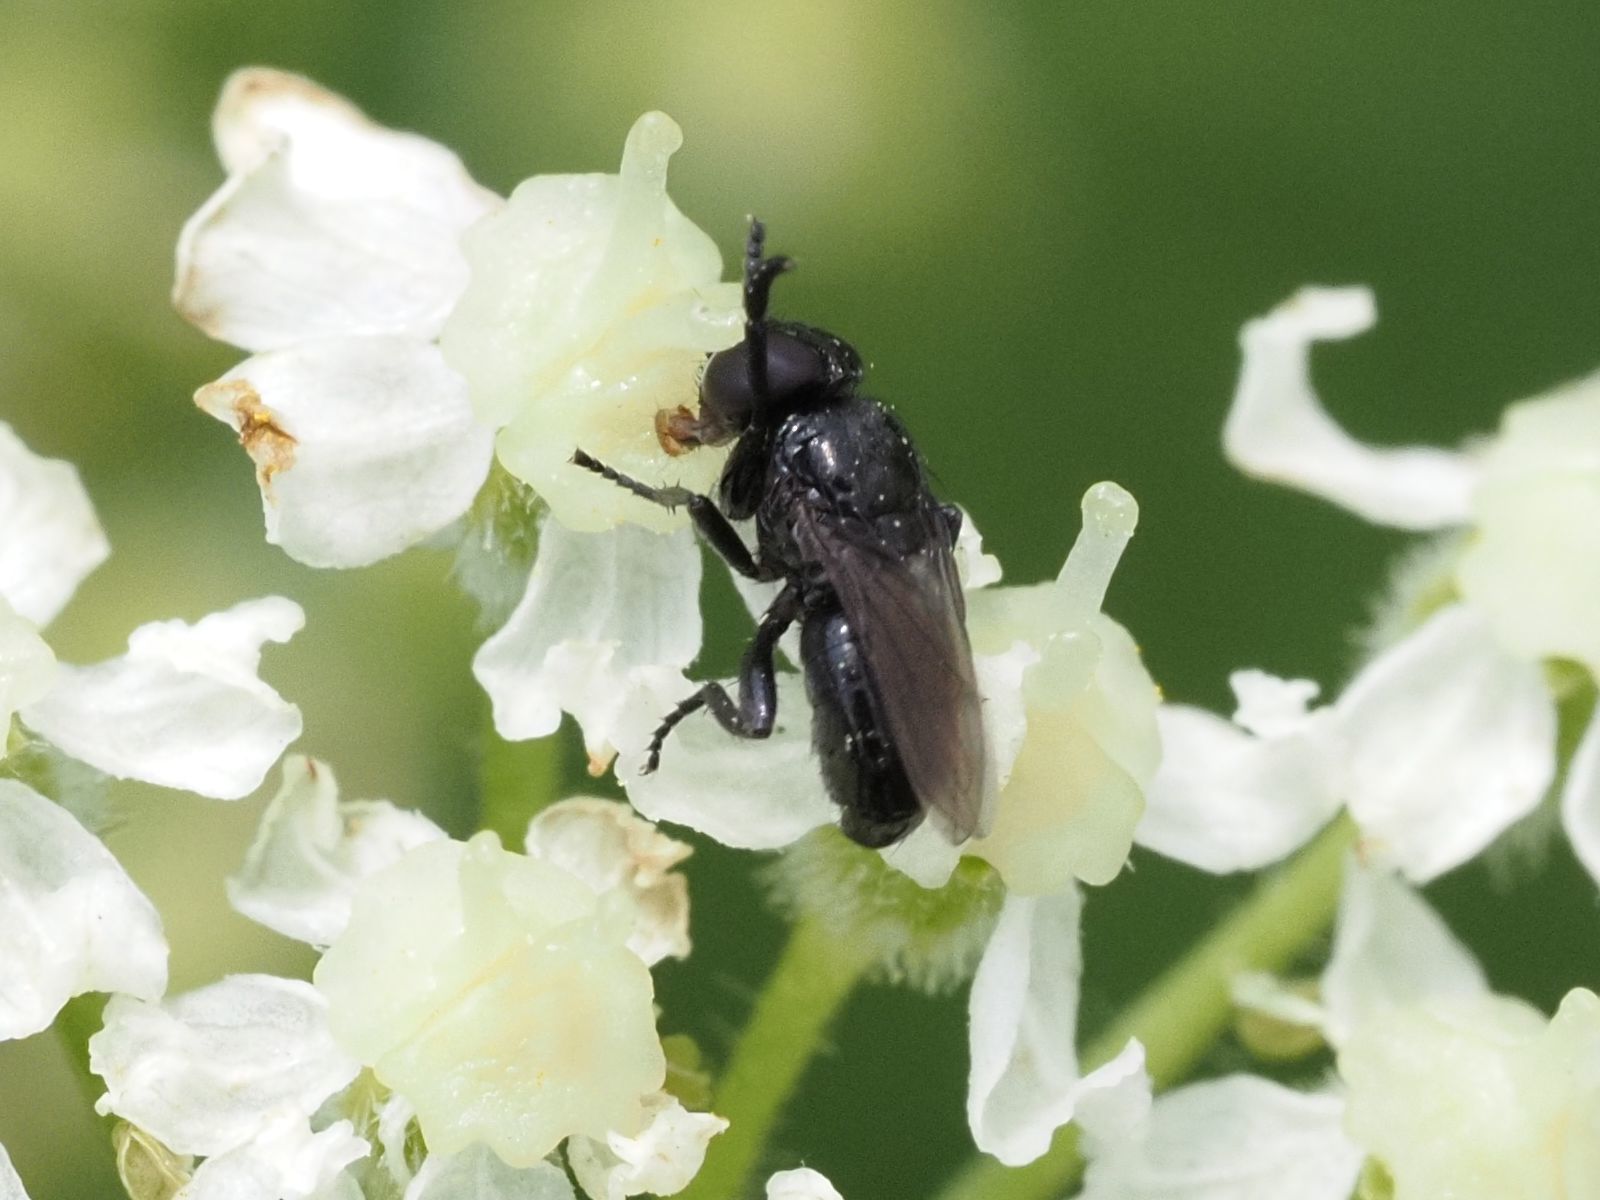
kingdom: Animalia
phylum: Arthropoda
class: Insecta
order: Diptera
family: Tachinidae
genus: Litophasia
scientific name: Litophasia hyalipennis
